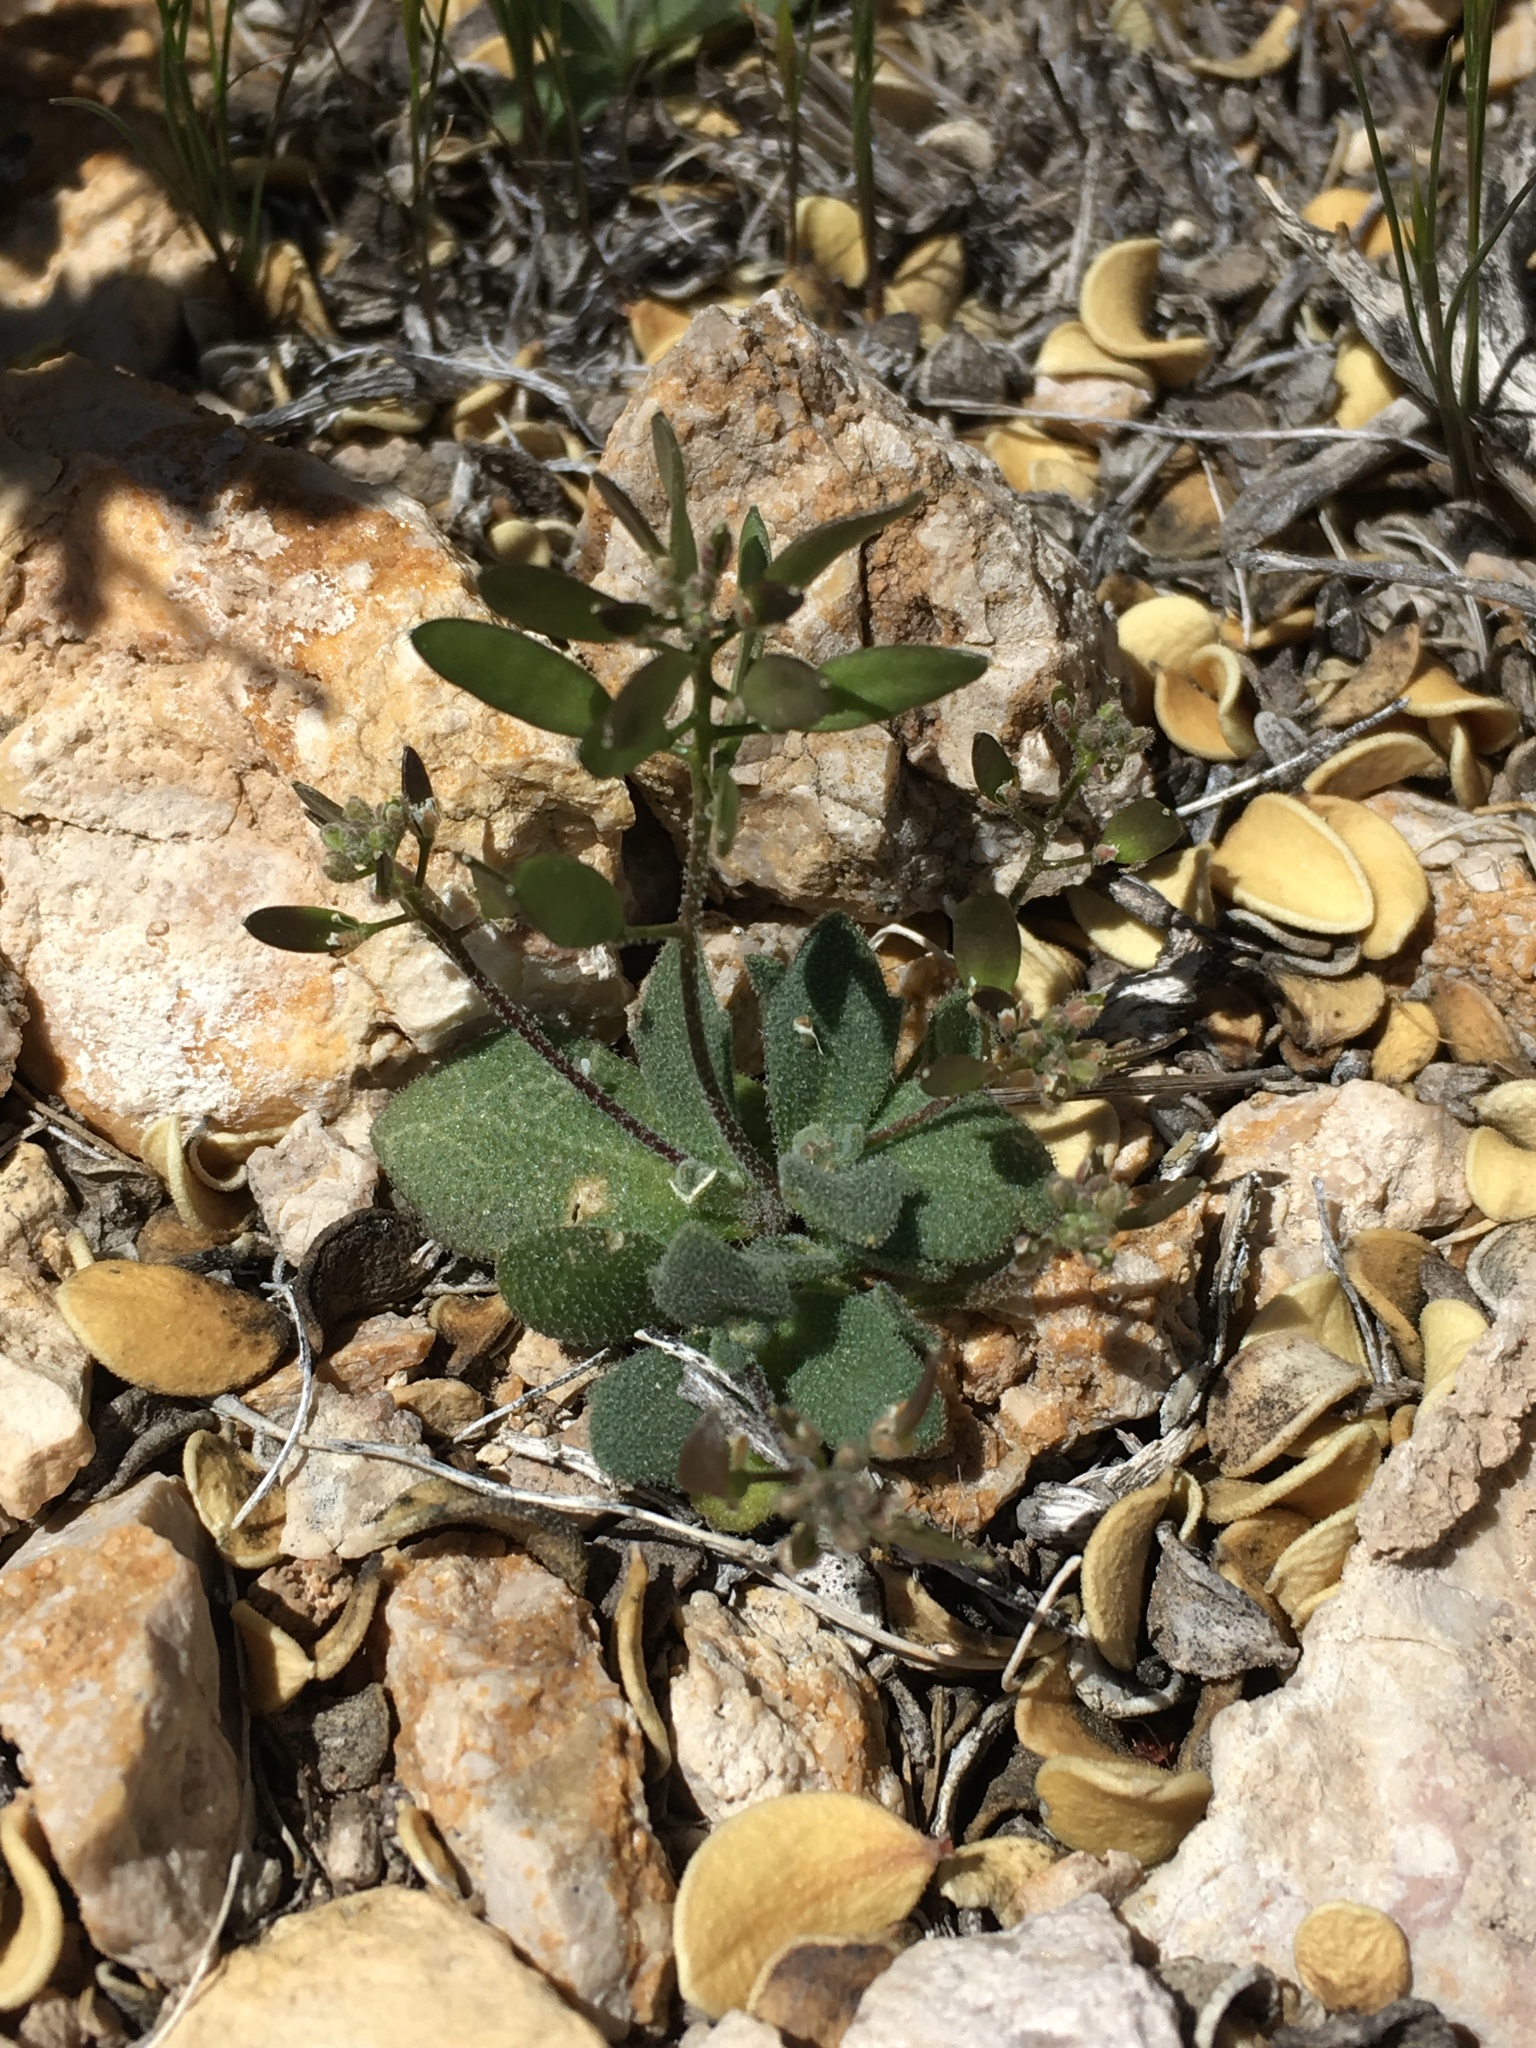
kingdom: Plantae
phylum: Tracheophyta
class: Magnoliopsida
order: Brassicales
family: Brassicaceae
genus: Tomostima
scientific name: Tomostima cuneifolia
